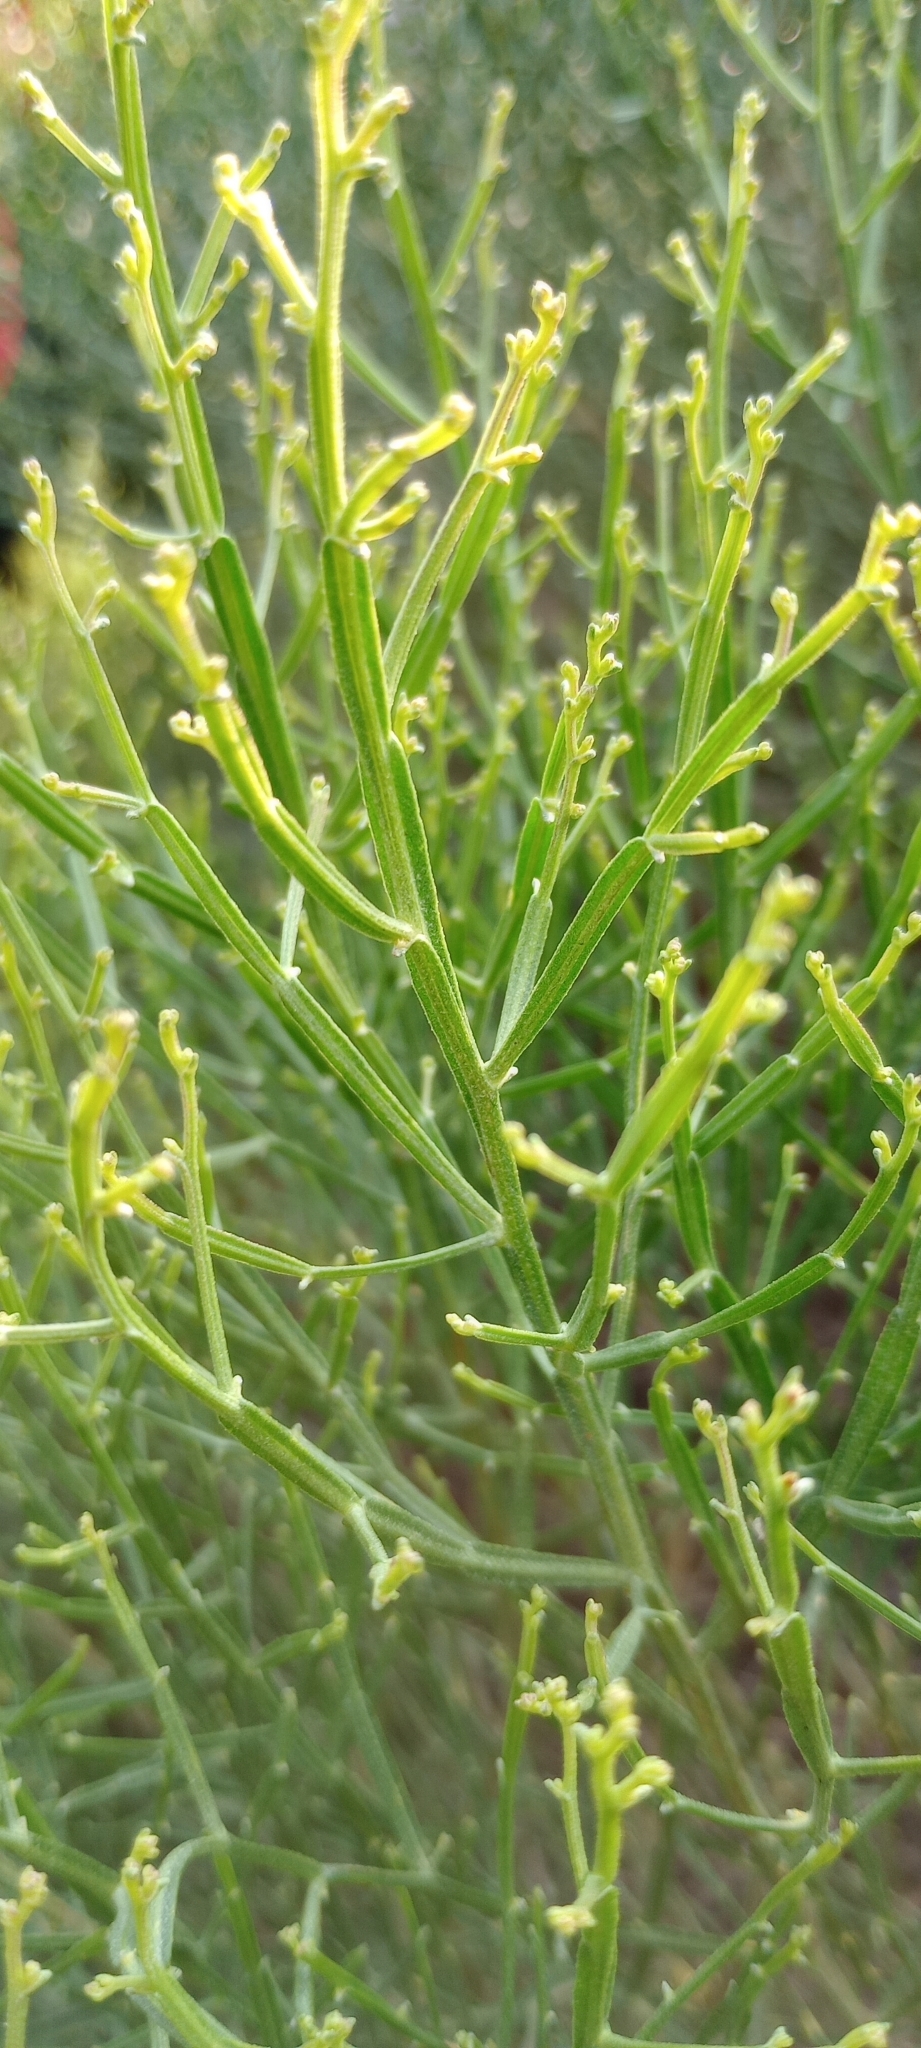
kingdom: Plantae
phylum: Tracheophyta
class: Magnoliopsida
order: Asterales
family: Asteraceae
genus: Baccharis
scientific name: Baccharis articulata
